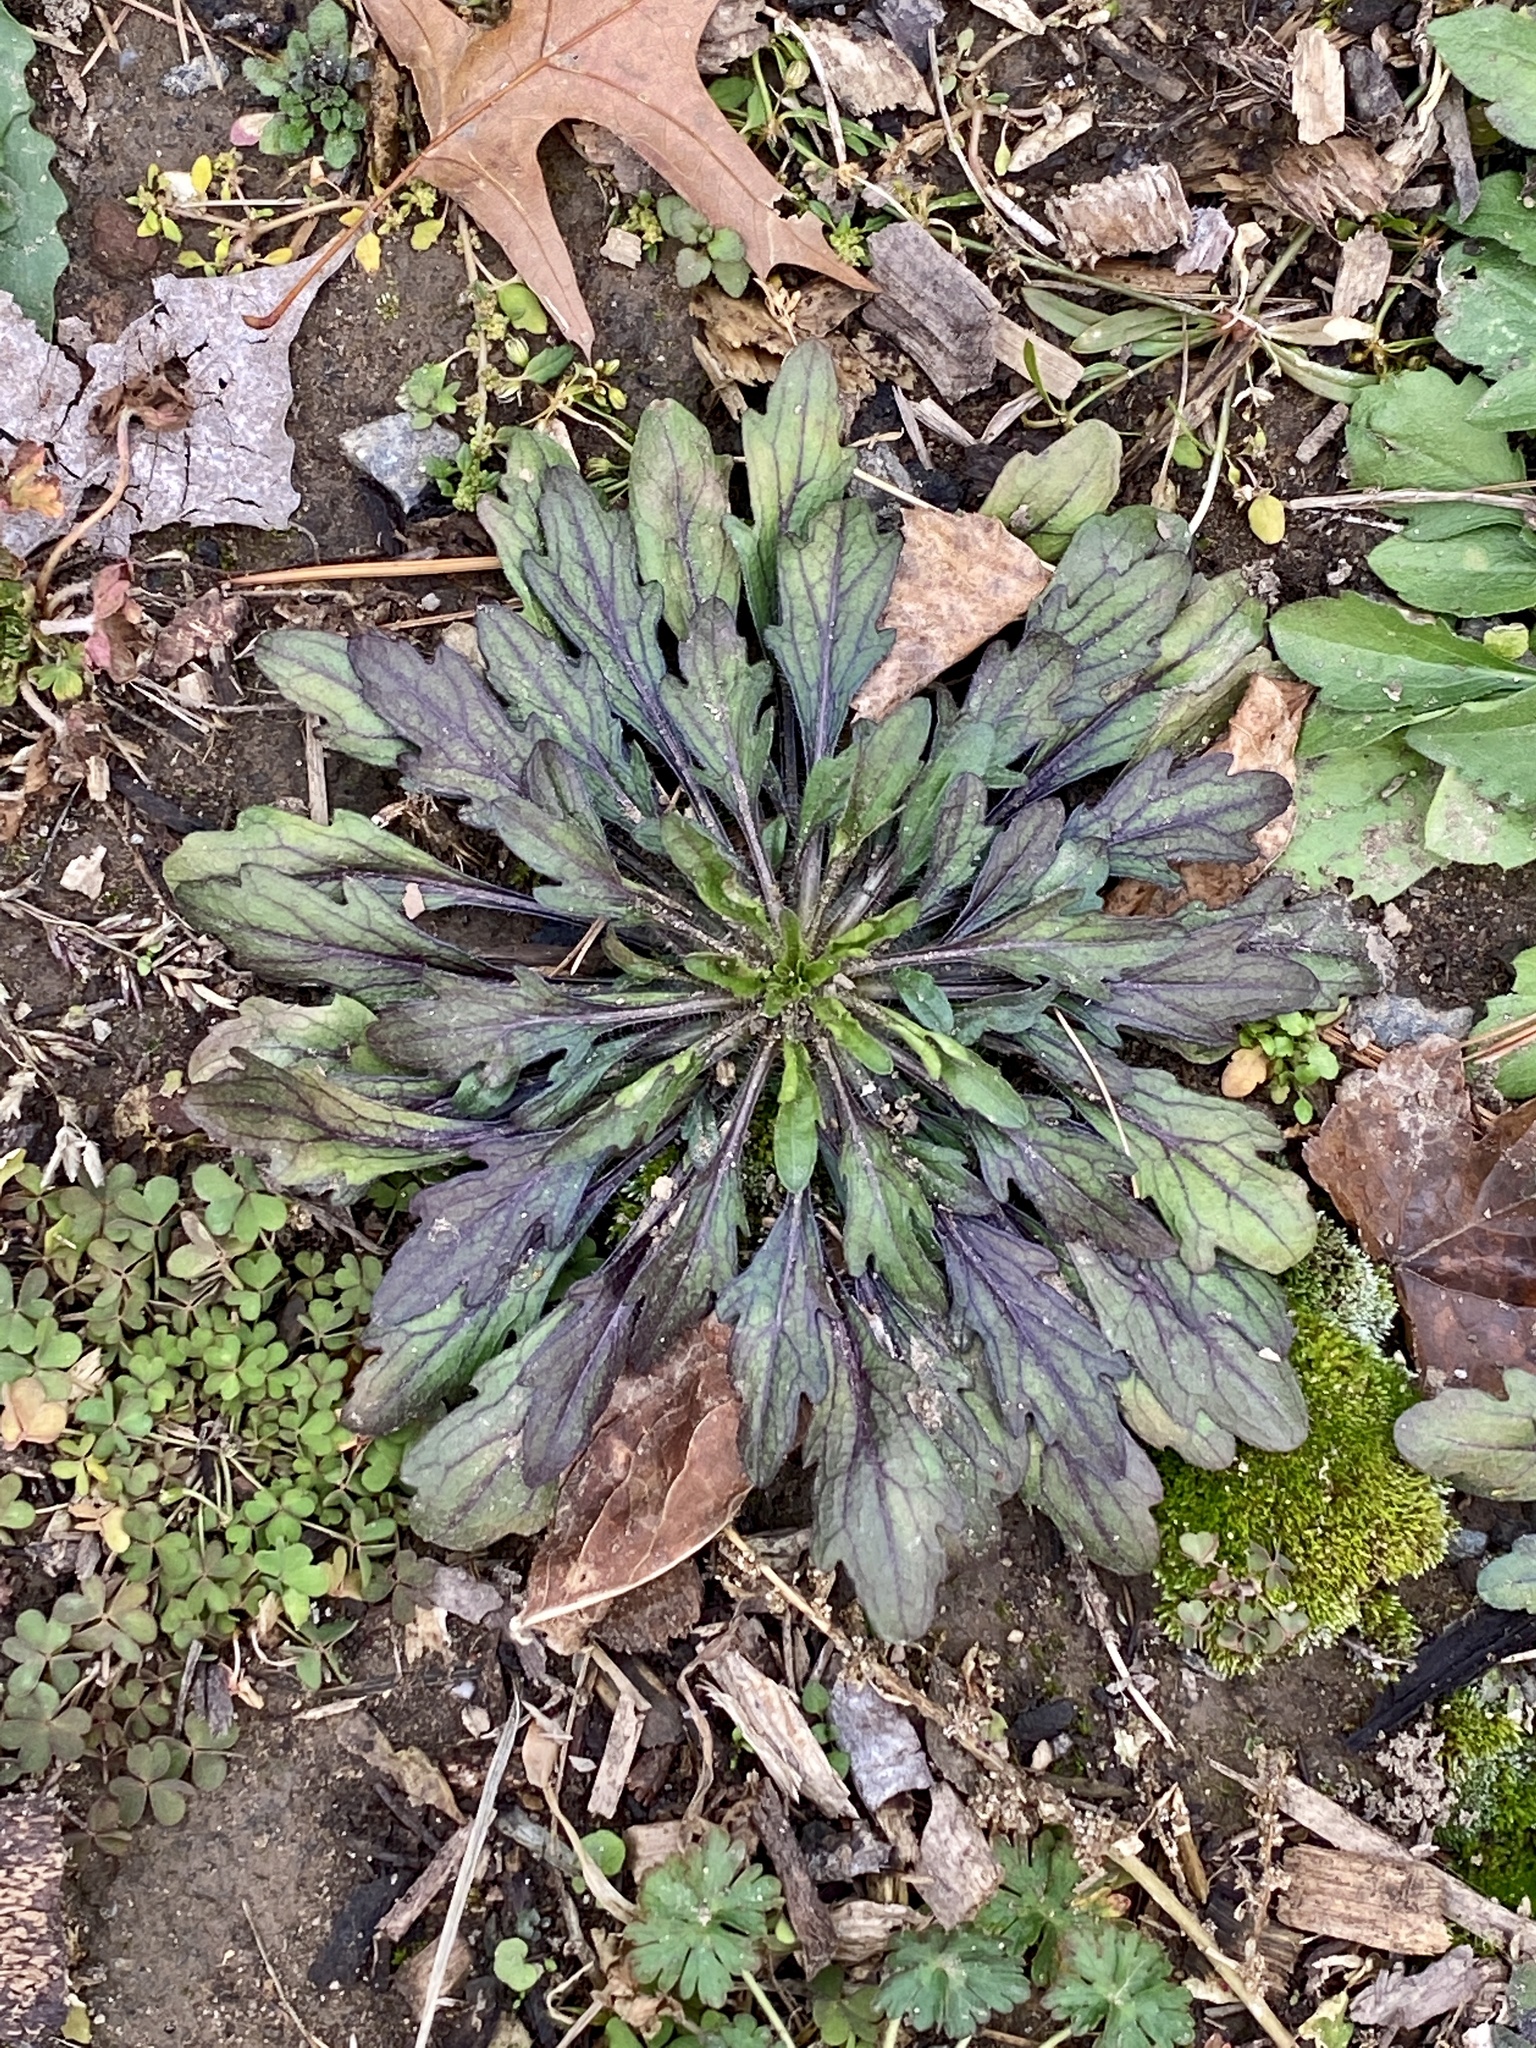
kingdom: Plantae
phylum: Tracheophyta
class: Magnoliopsida
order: Asterales
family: Asteraceae
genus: Erigeron
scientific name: Erigeron canadensis
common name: Canadian fleabane
